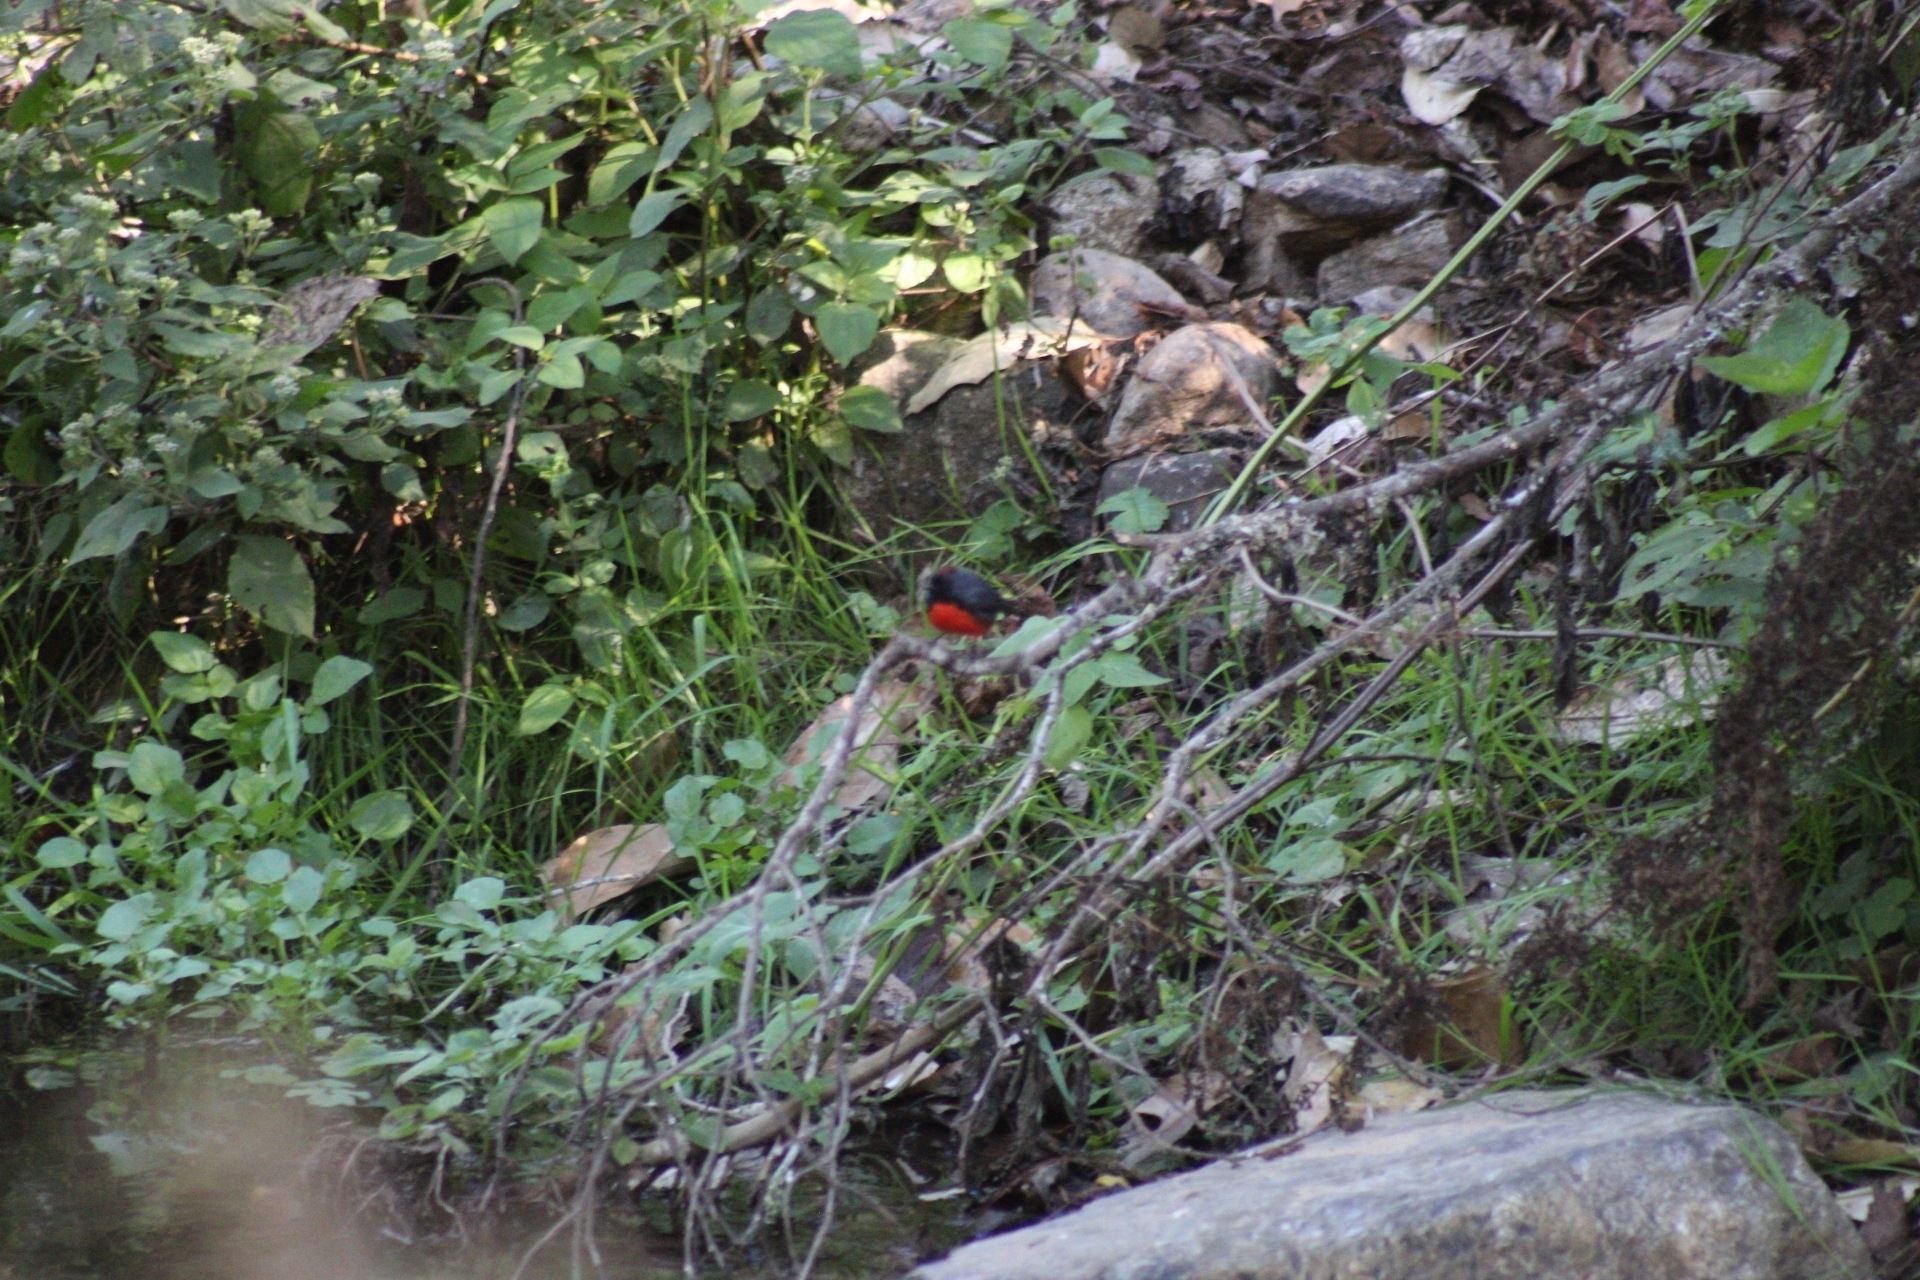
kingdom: Animalia
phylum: Chordata
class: Aves
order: Passeriformes
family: Parulidae
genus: Myioborus
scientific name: Myioborus miniatus
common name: Slate-throated redstart
